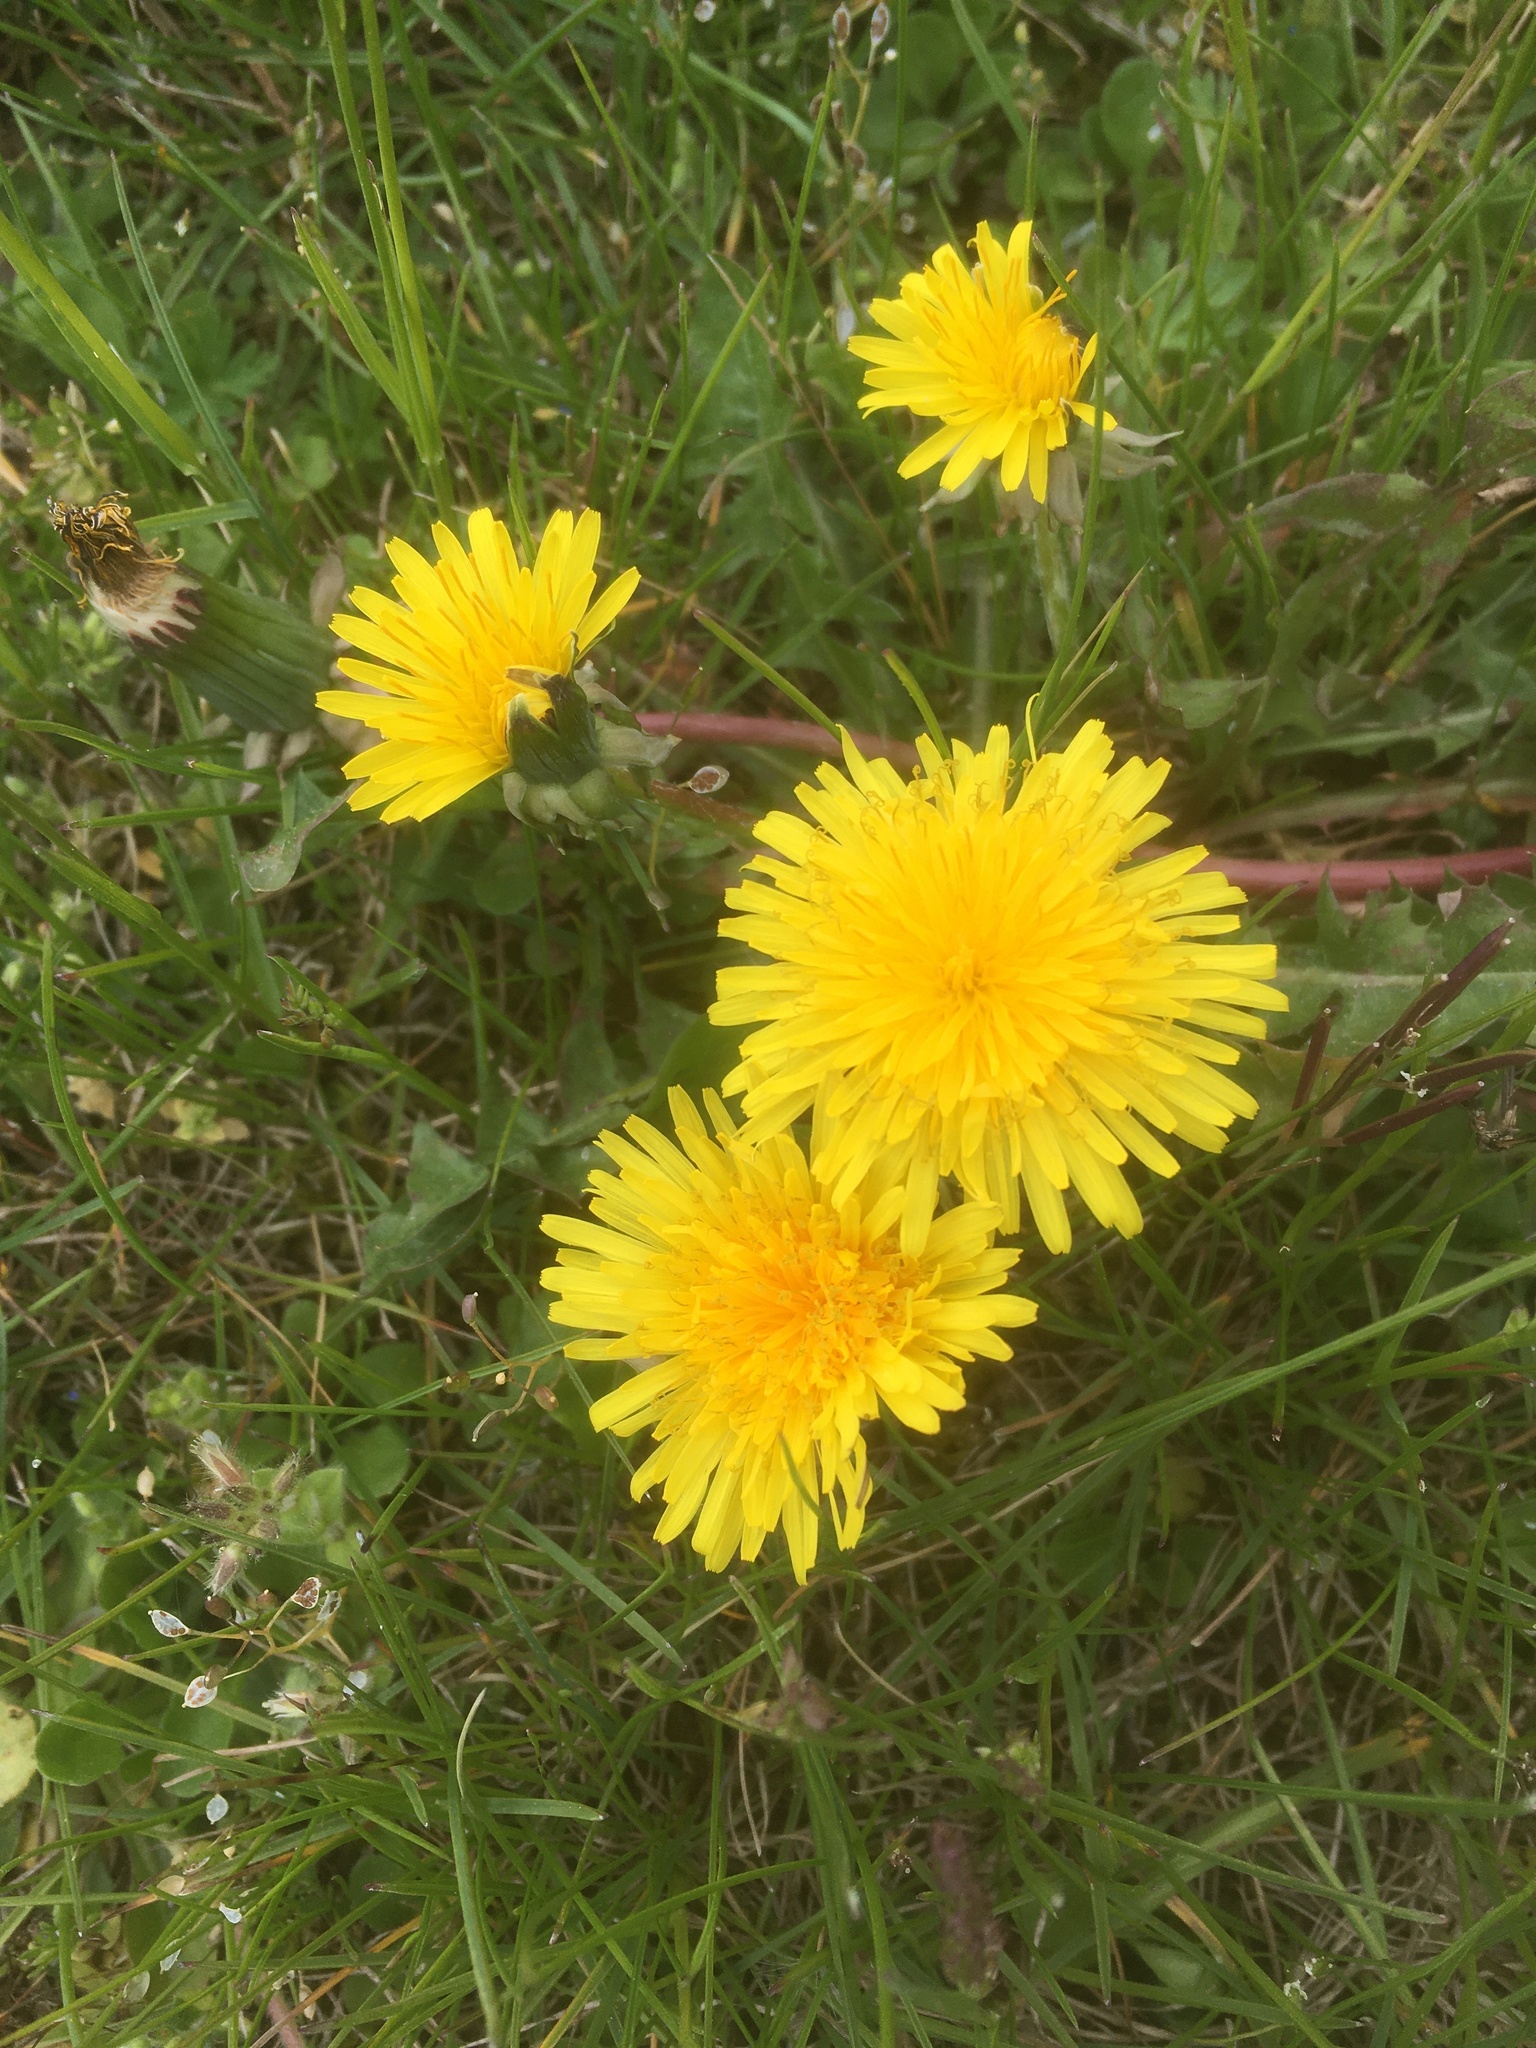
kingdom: Plantae
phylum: Tracheophyta
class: Magnoliopsida
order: Asterales
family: Asteraceae
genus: Taraxacum
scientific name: Taraxacum officinale
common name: Common dandelion
